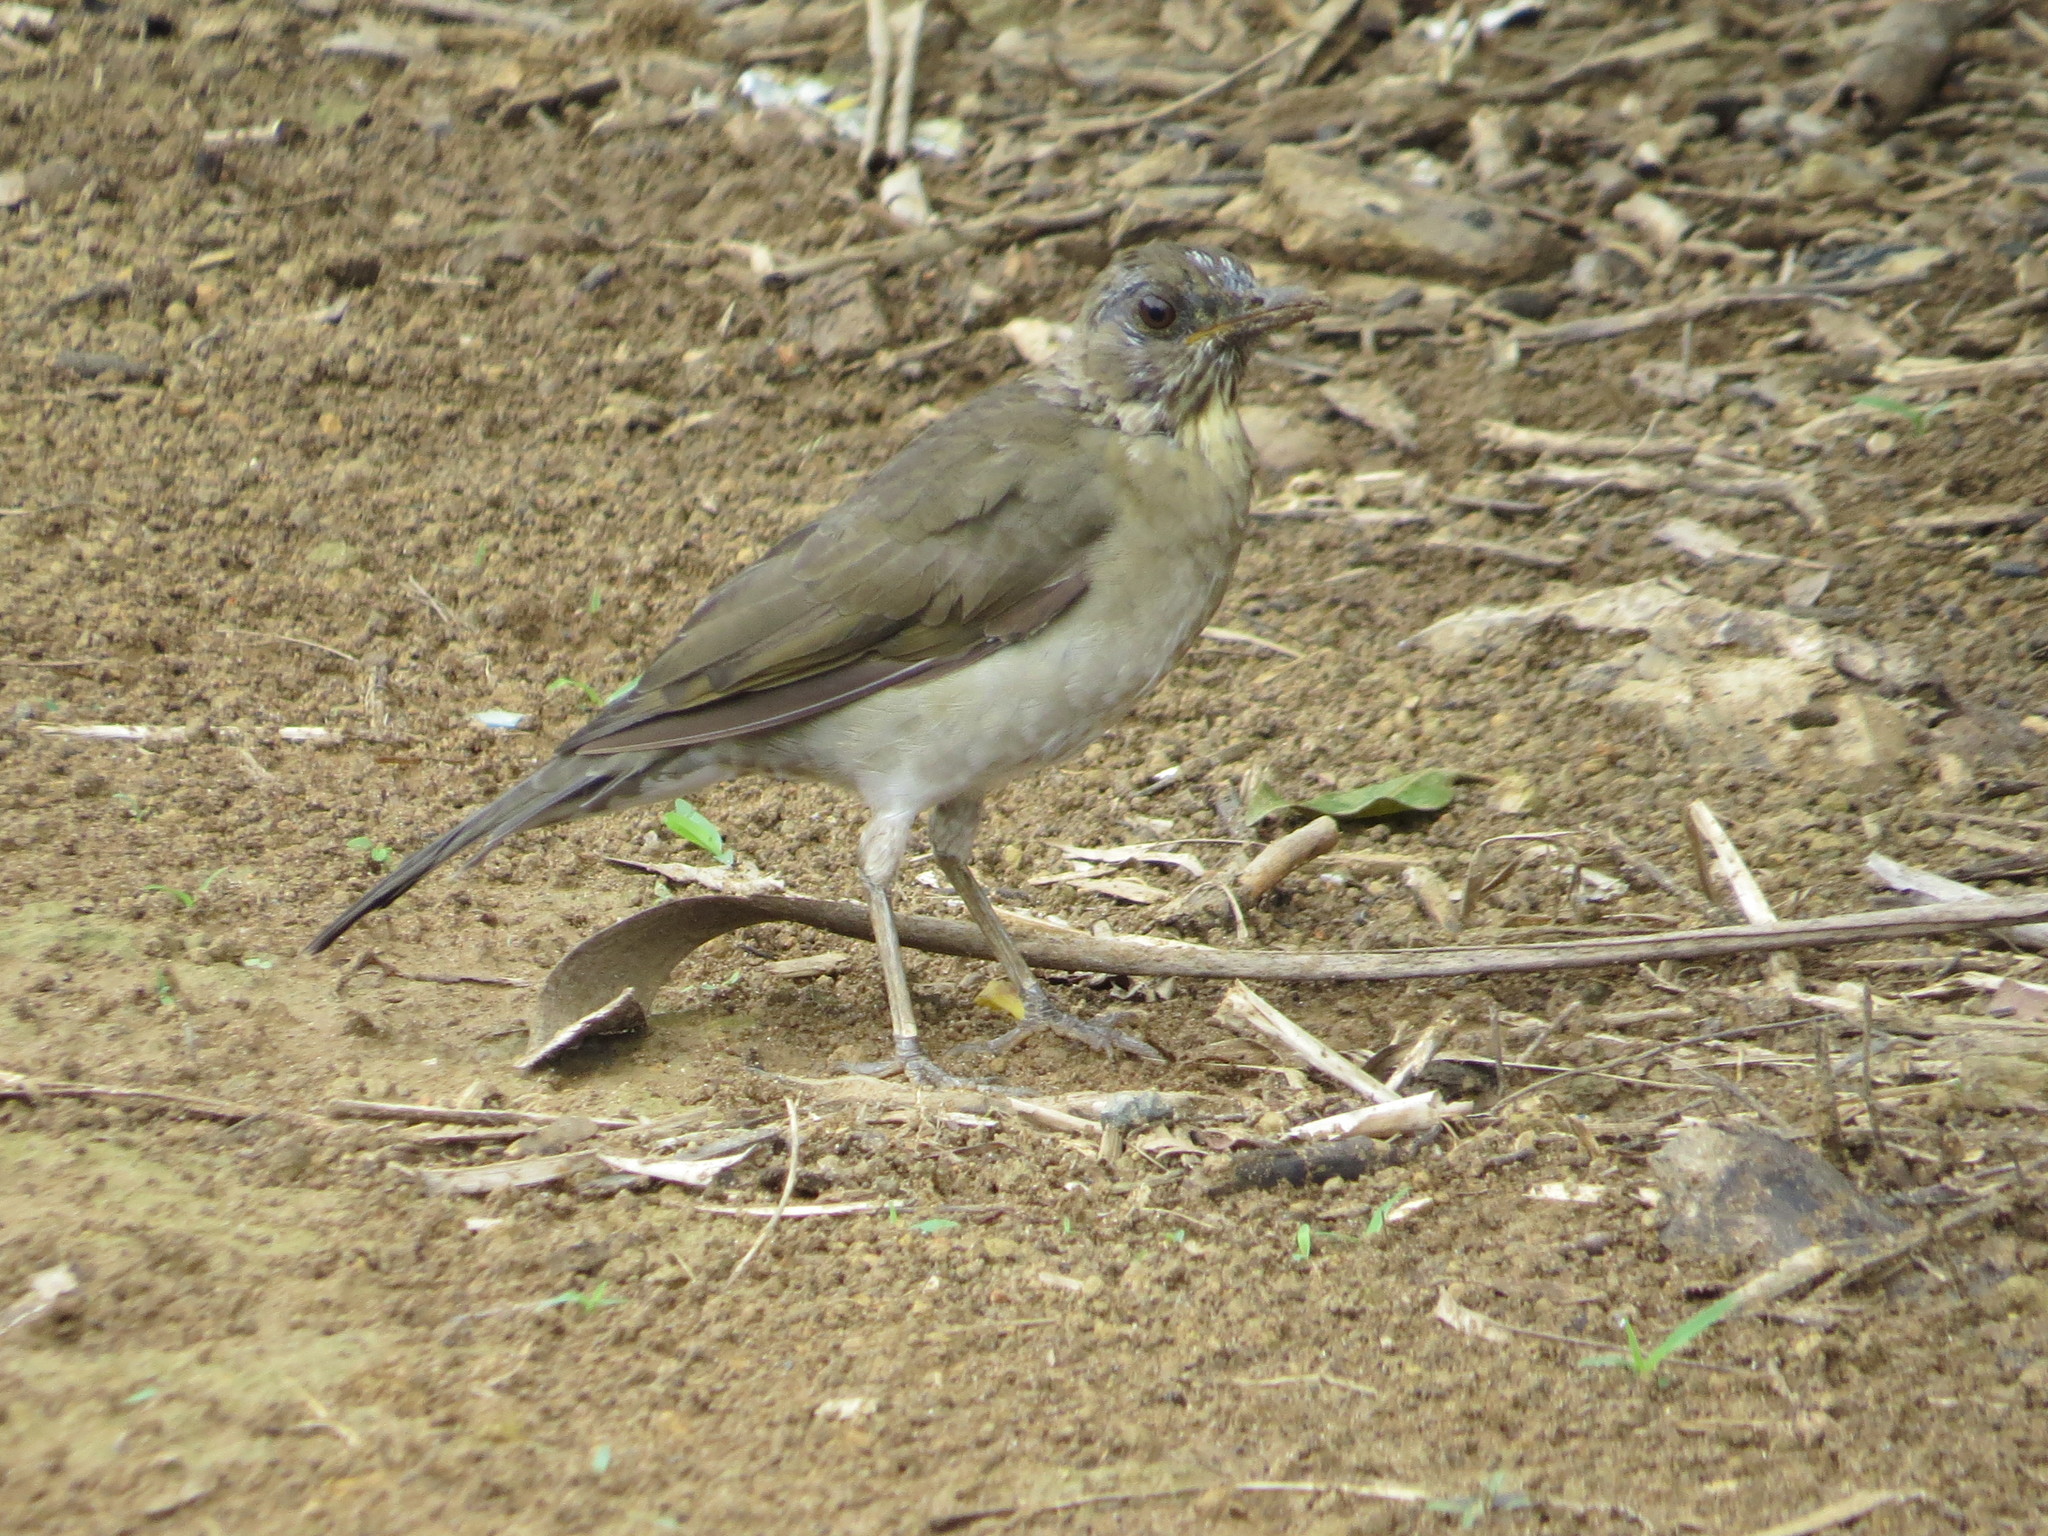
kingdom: Animalia
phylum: Chordata
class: Aves
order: Passeriformes
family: Turdidae
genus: Turdus
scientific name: Turdus leucomelas
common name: Pale-breasted thrush
